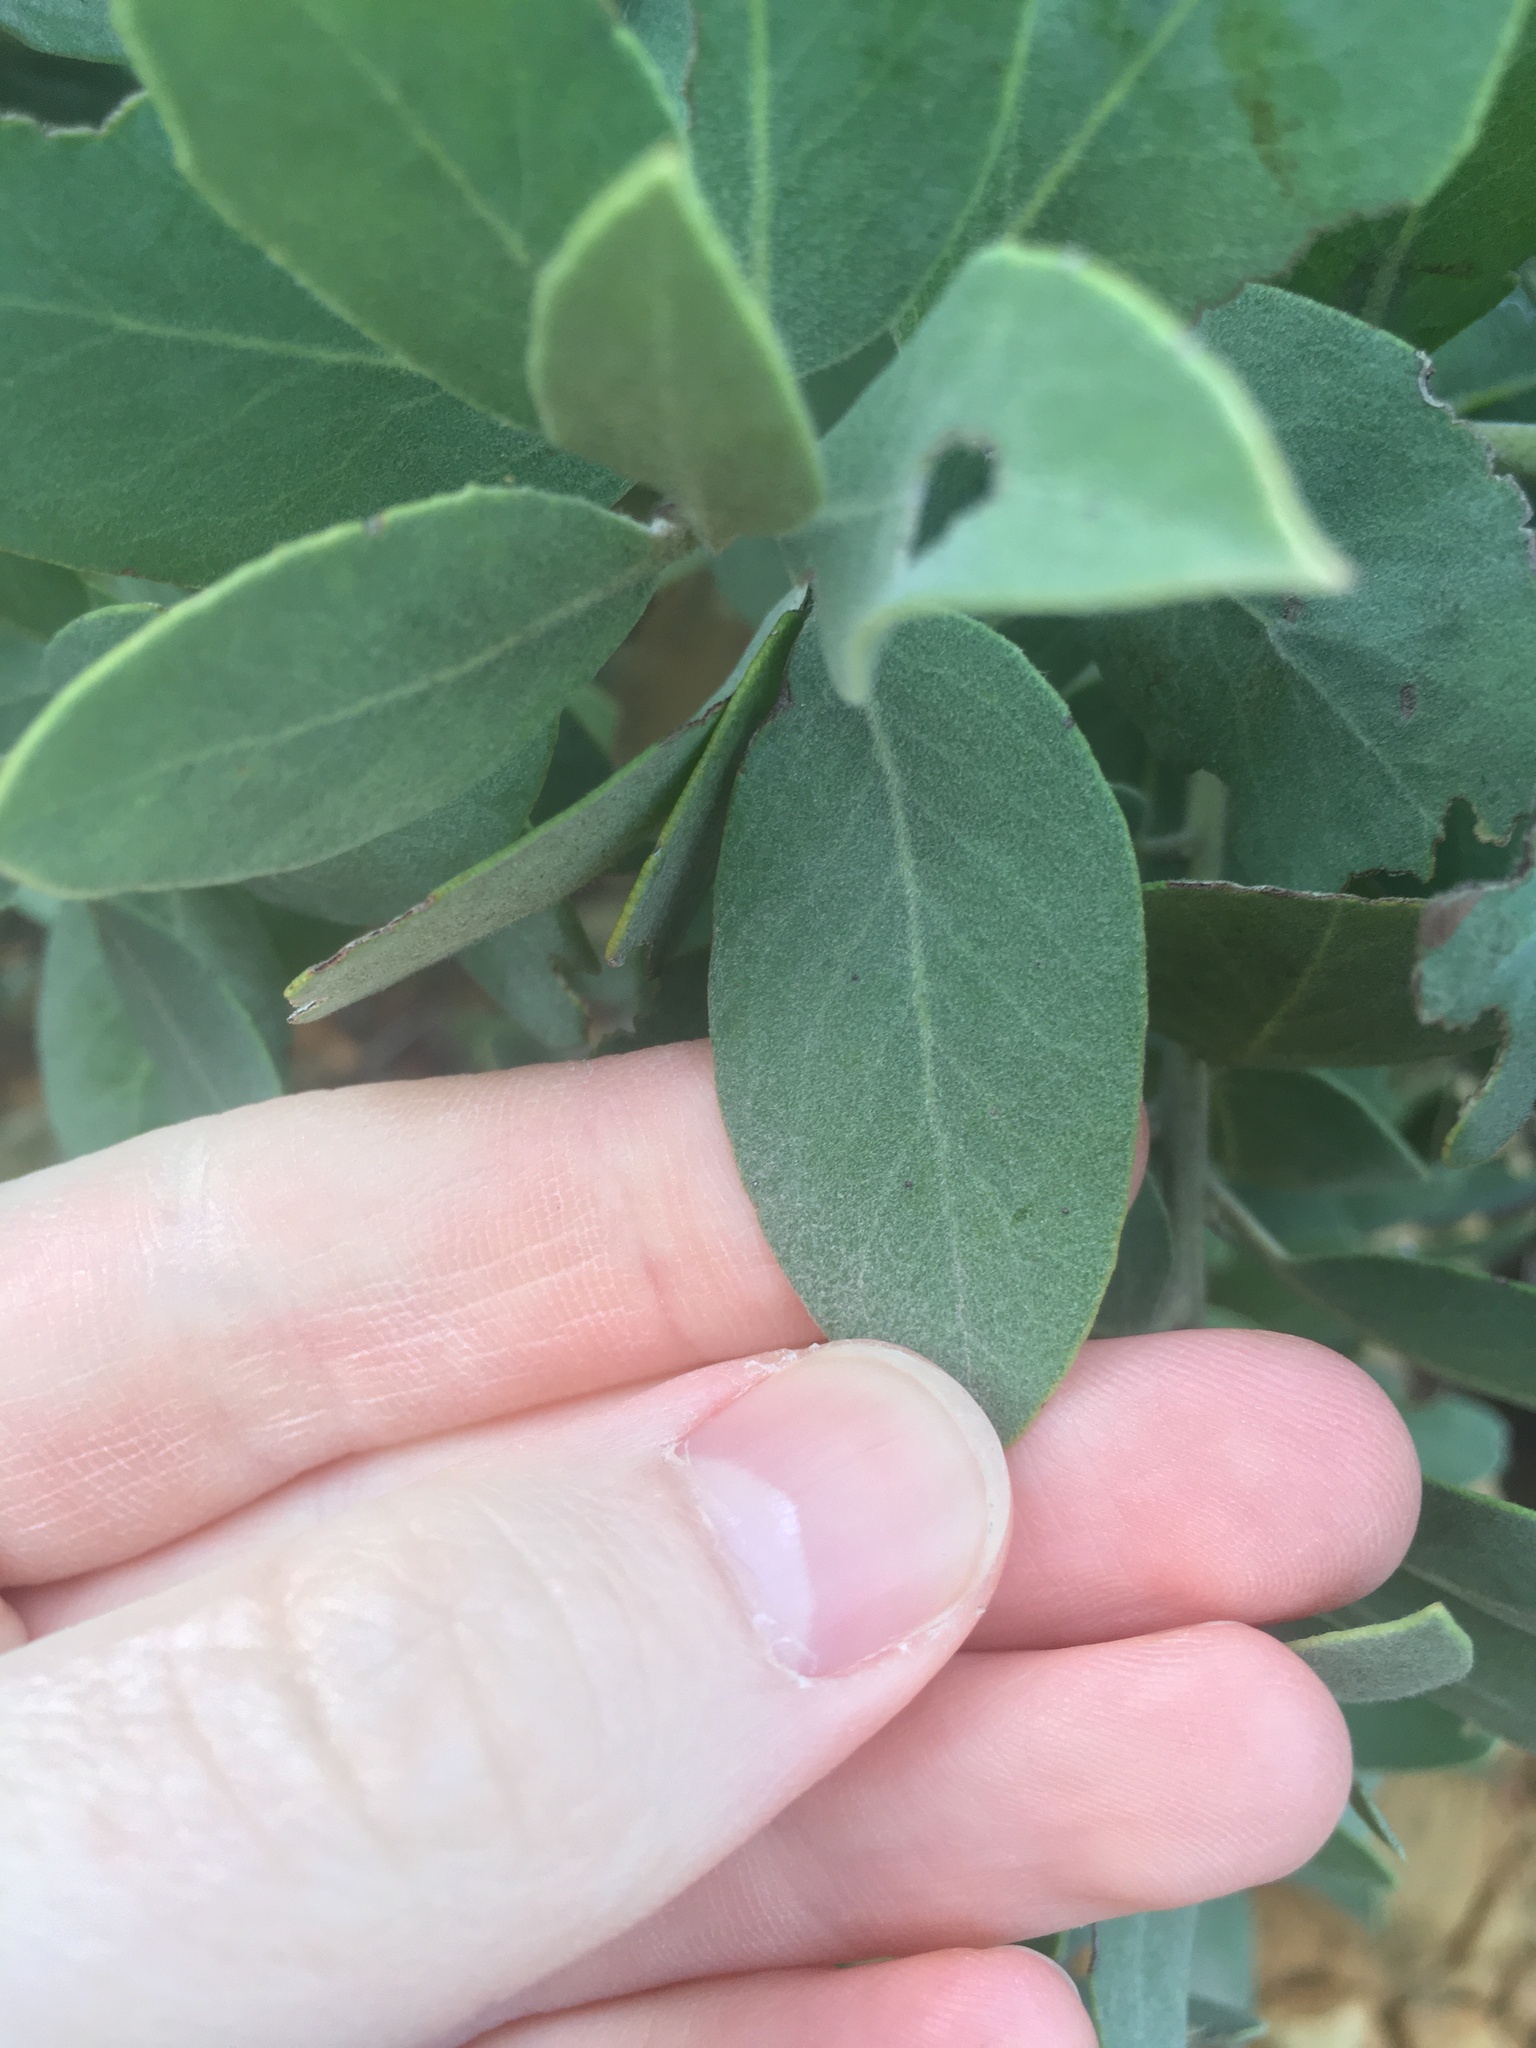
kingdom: Plantae
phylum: Tracheophyta
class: Magnoliopsida
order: Ericales
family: Ericaceae
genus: Arctostaphylos
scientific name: Arctostaphylos glandulosa
